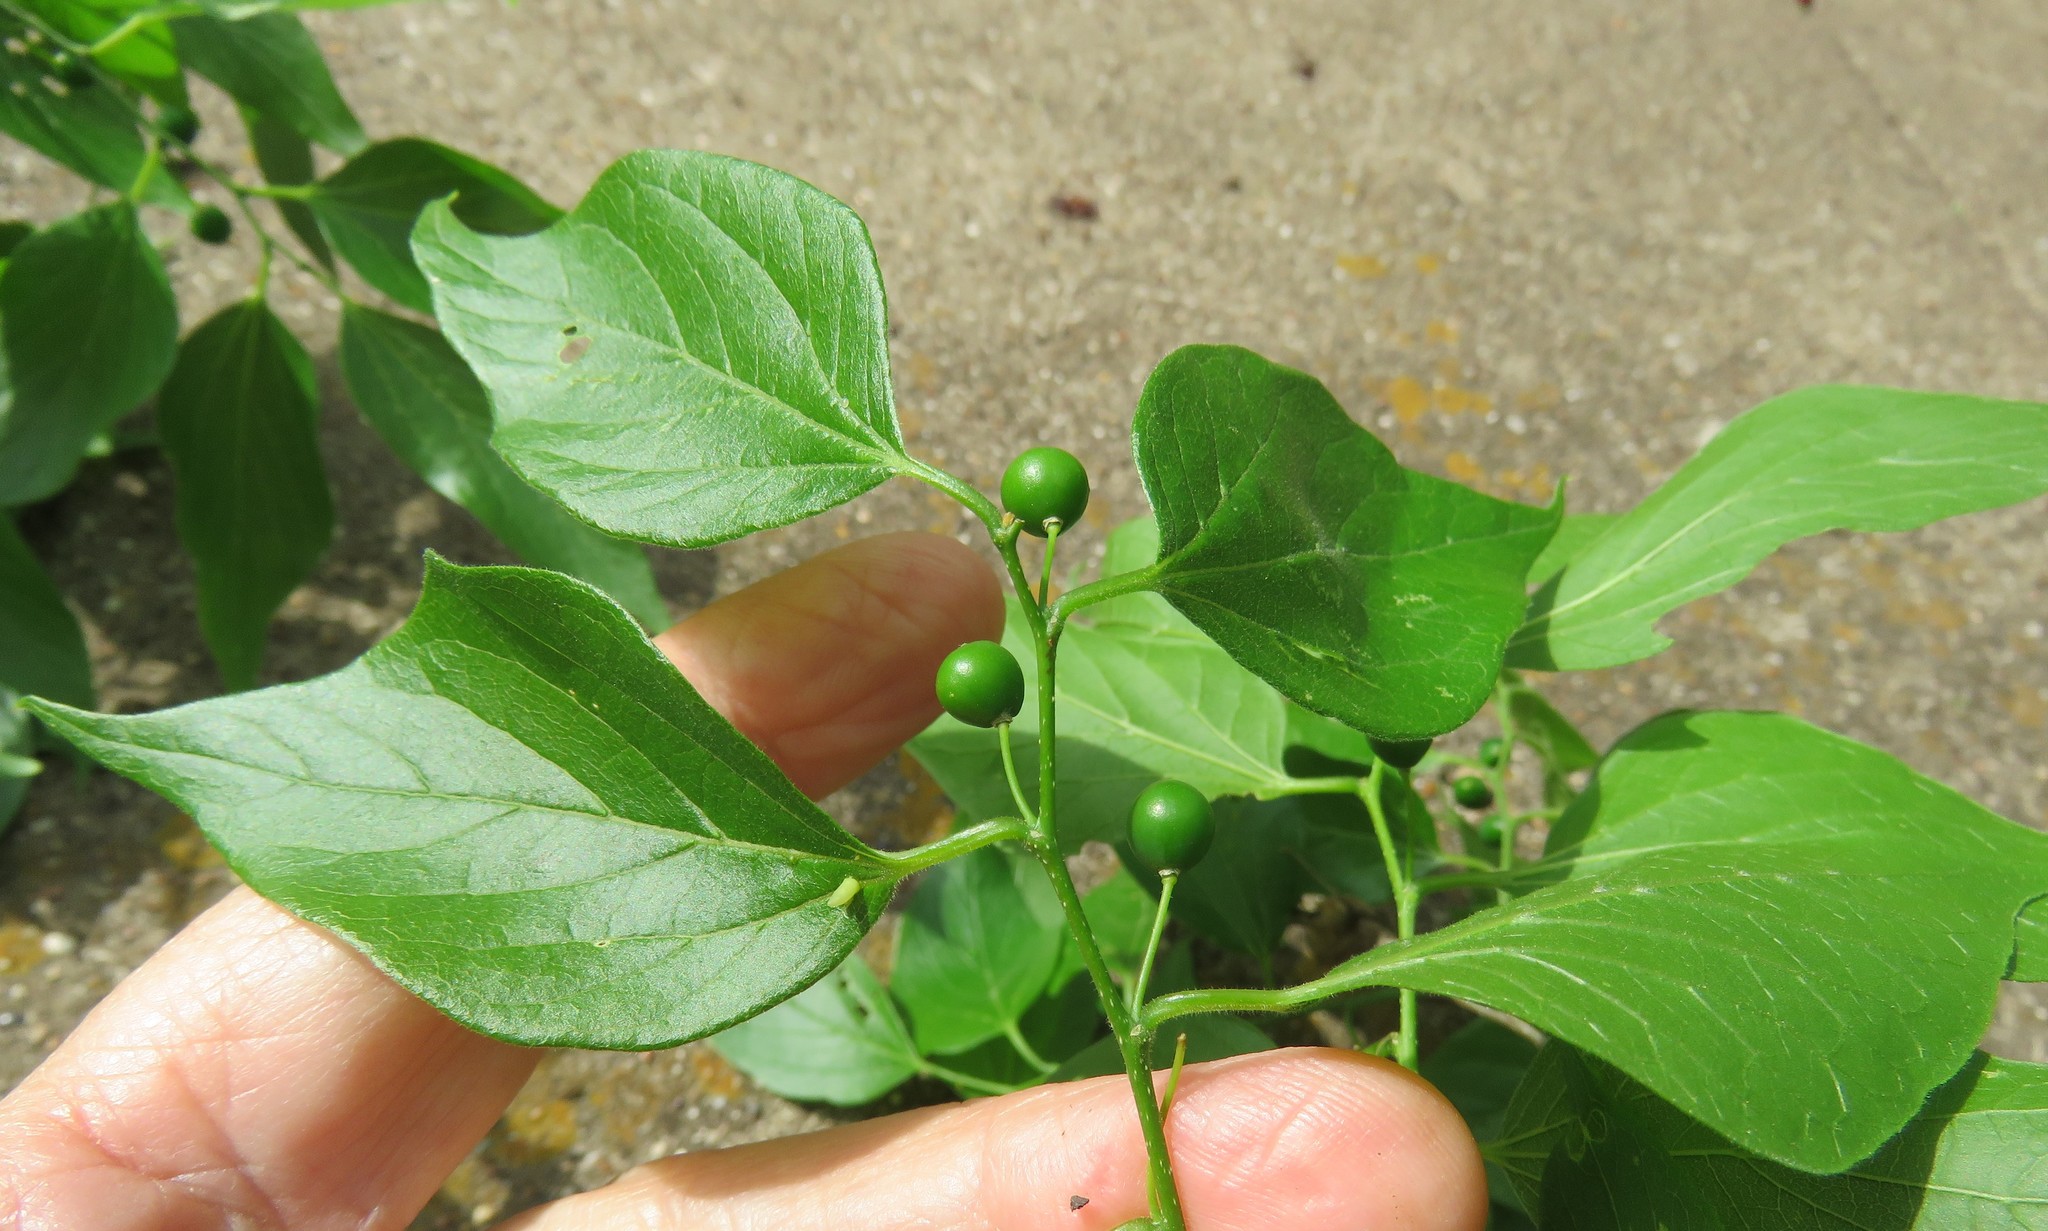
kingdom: Plantae
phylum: Tracheophyta
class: Magnoliopsida
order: Rosales
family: Cannabaceae
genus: Celtis
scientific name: Celtis laevigata
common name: Sugarberry
